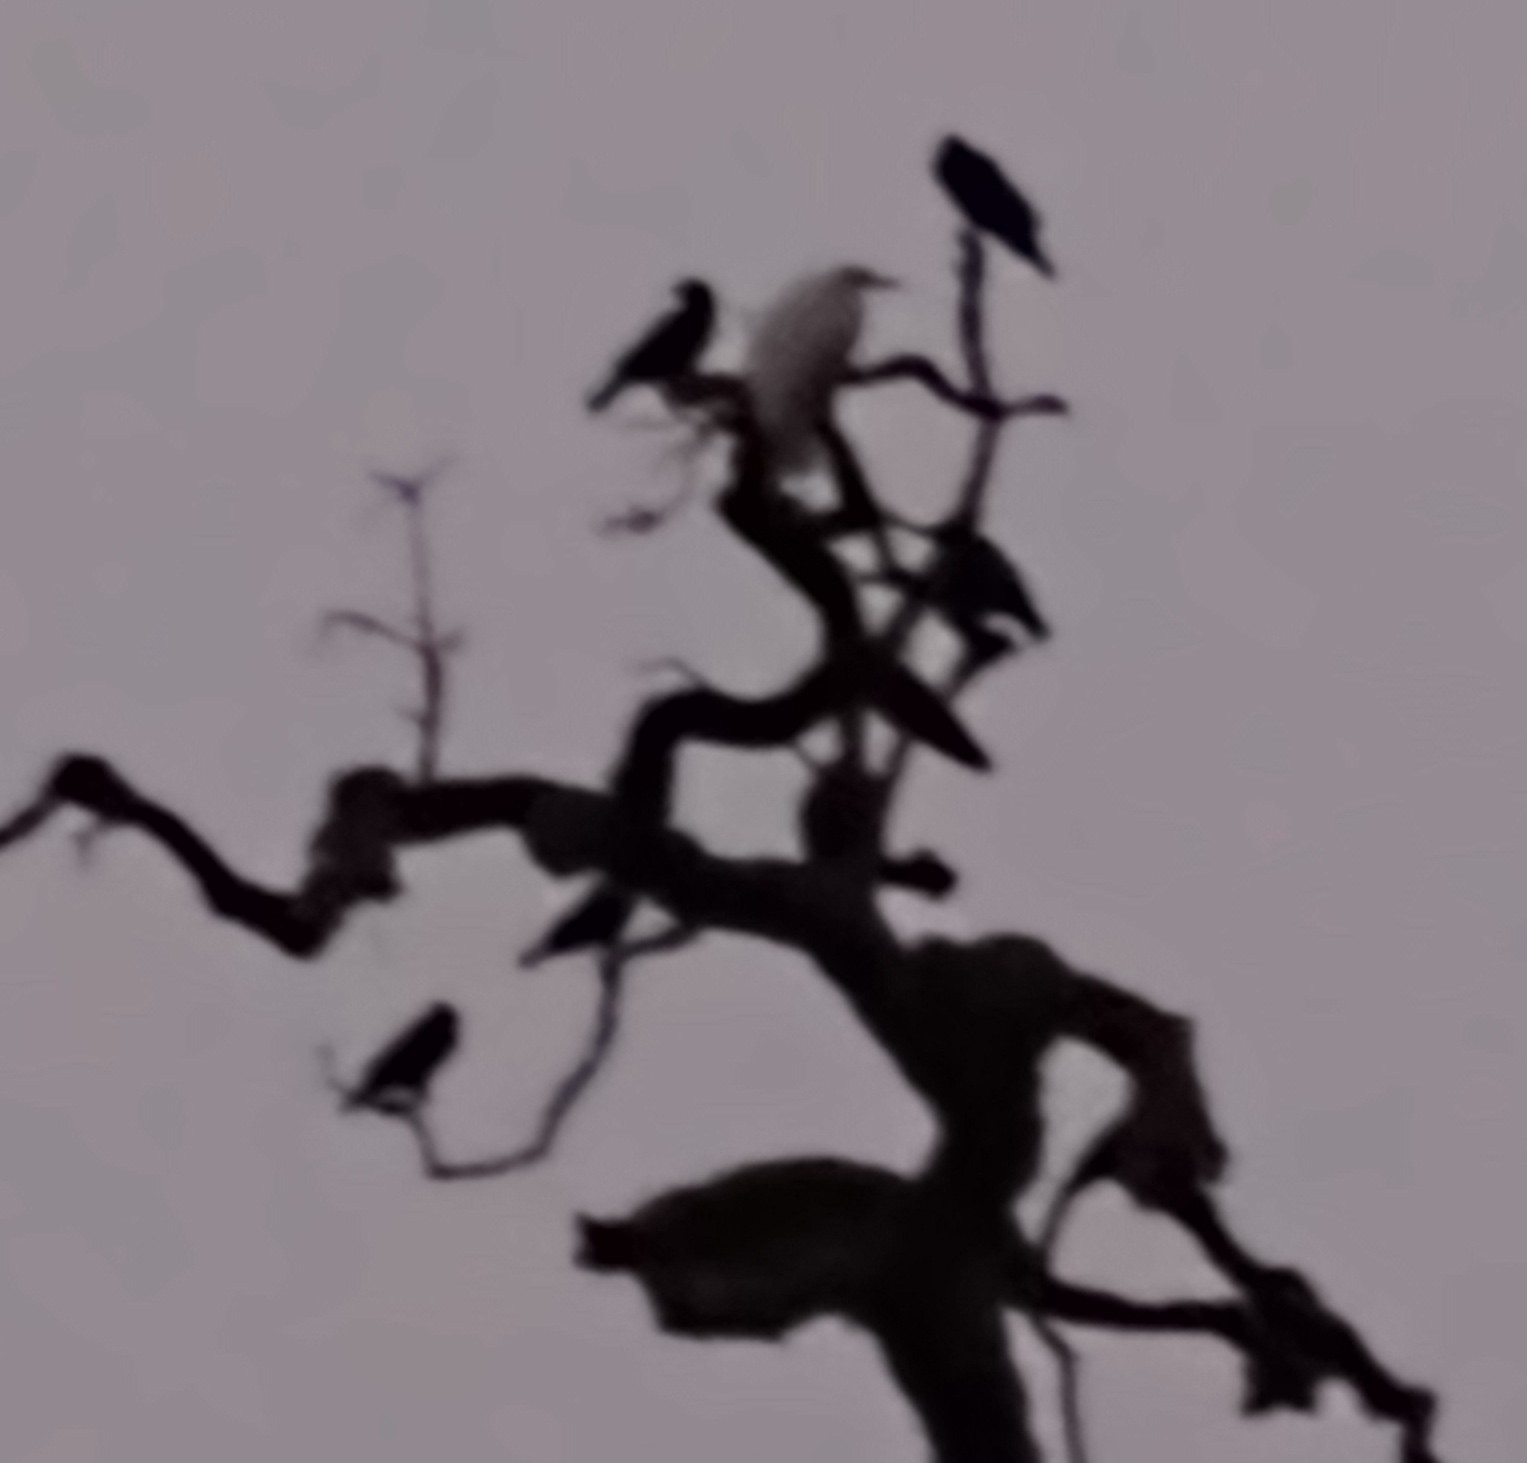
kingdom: Animalia
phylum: Chordata
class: Aves
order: Pelecaniformes
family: Ardeidae
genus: Ardea
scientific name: Ardea alba
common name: Great egret
